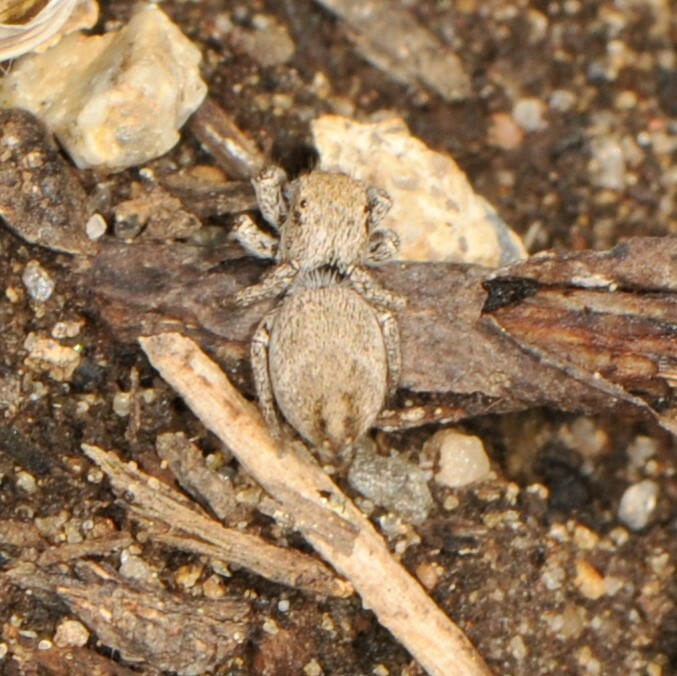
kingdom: Animalia
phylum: Arthropoda
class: Arachnida
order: Araneae
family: Salticidae
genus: Habronattus
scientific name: Habronattus klauseri
